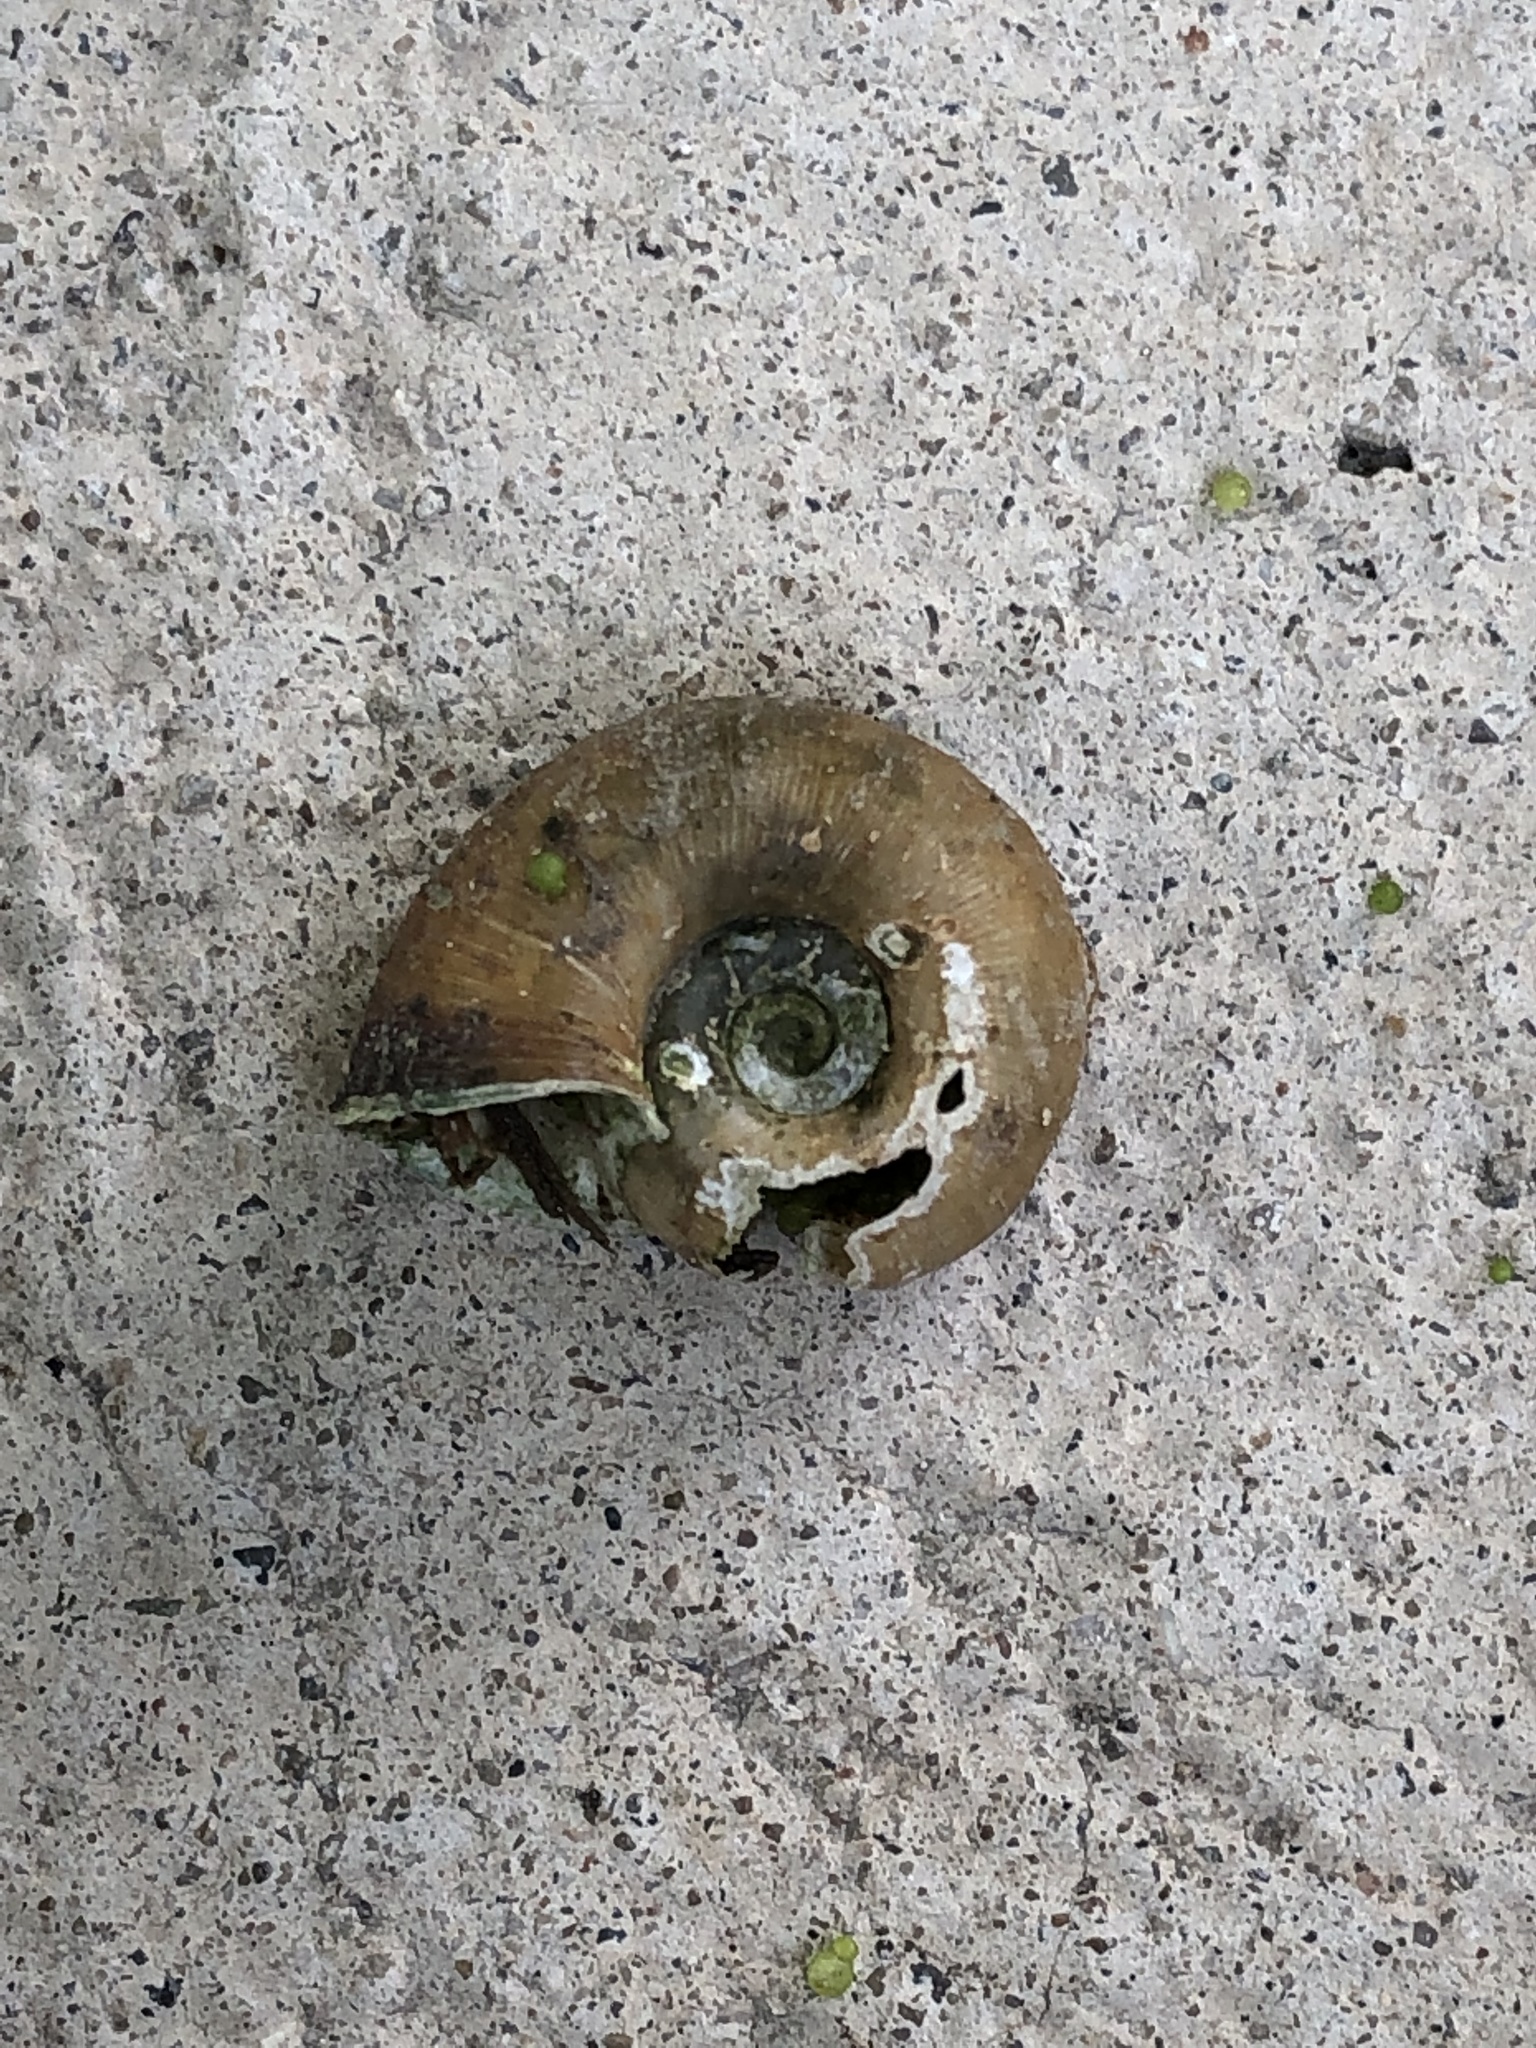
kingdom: Animalia
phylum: Mollusca
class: Gastropoda
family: Planorbidae
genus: Planorbella
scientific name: Planorbella trivolvis
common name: Marsh rams-horn
